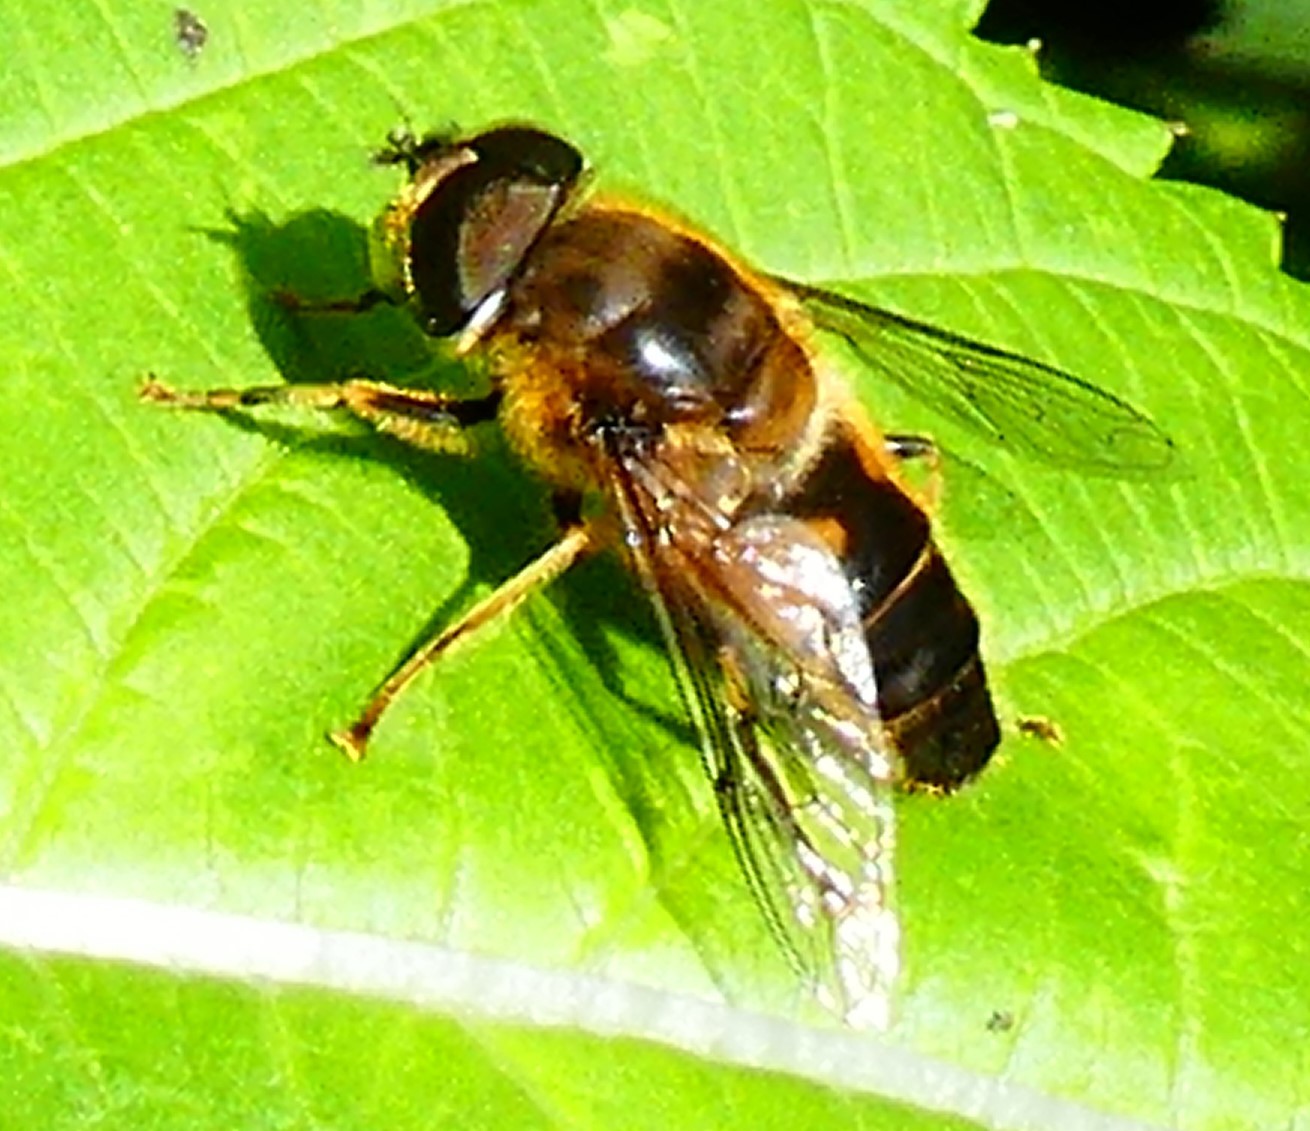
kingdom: Animalia
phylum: Arthropoda
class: Insecta
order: Diptera
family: Syrphidae
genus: Eristalis
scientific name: Eristalis pertinax
